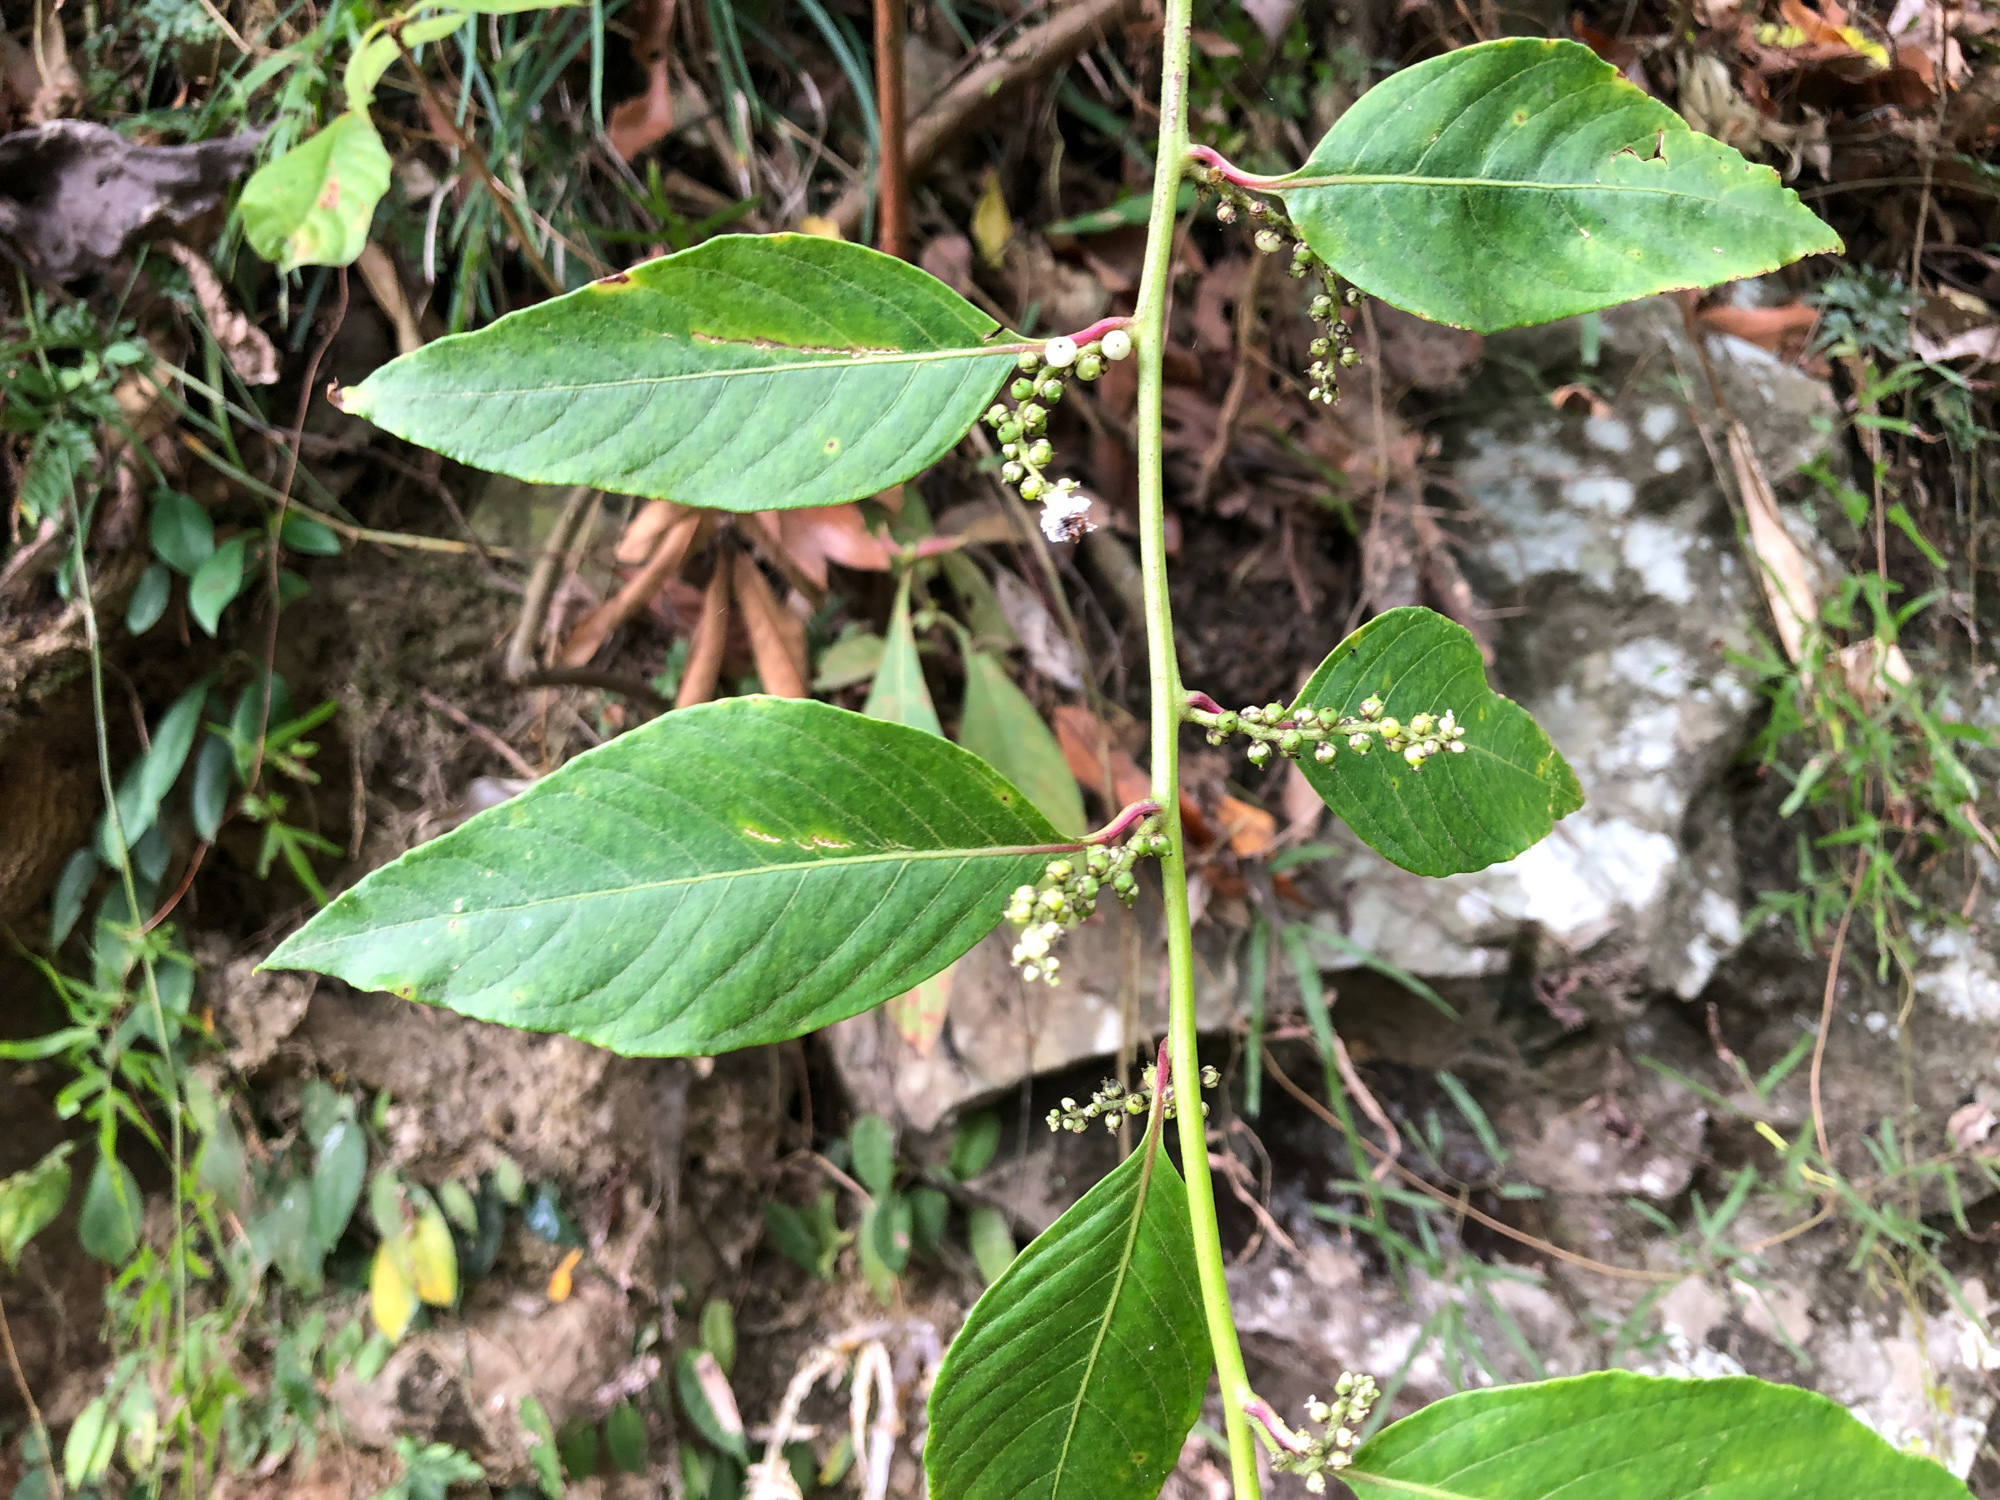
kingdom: Plantae
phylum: Tracheophyta
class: Magnoliopsida
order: Caryophyllales
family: Amaranthaceae
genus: Deeringia
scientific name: Deeringia polysperma
